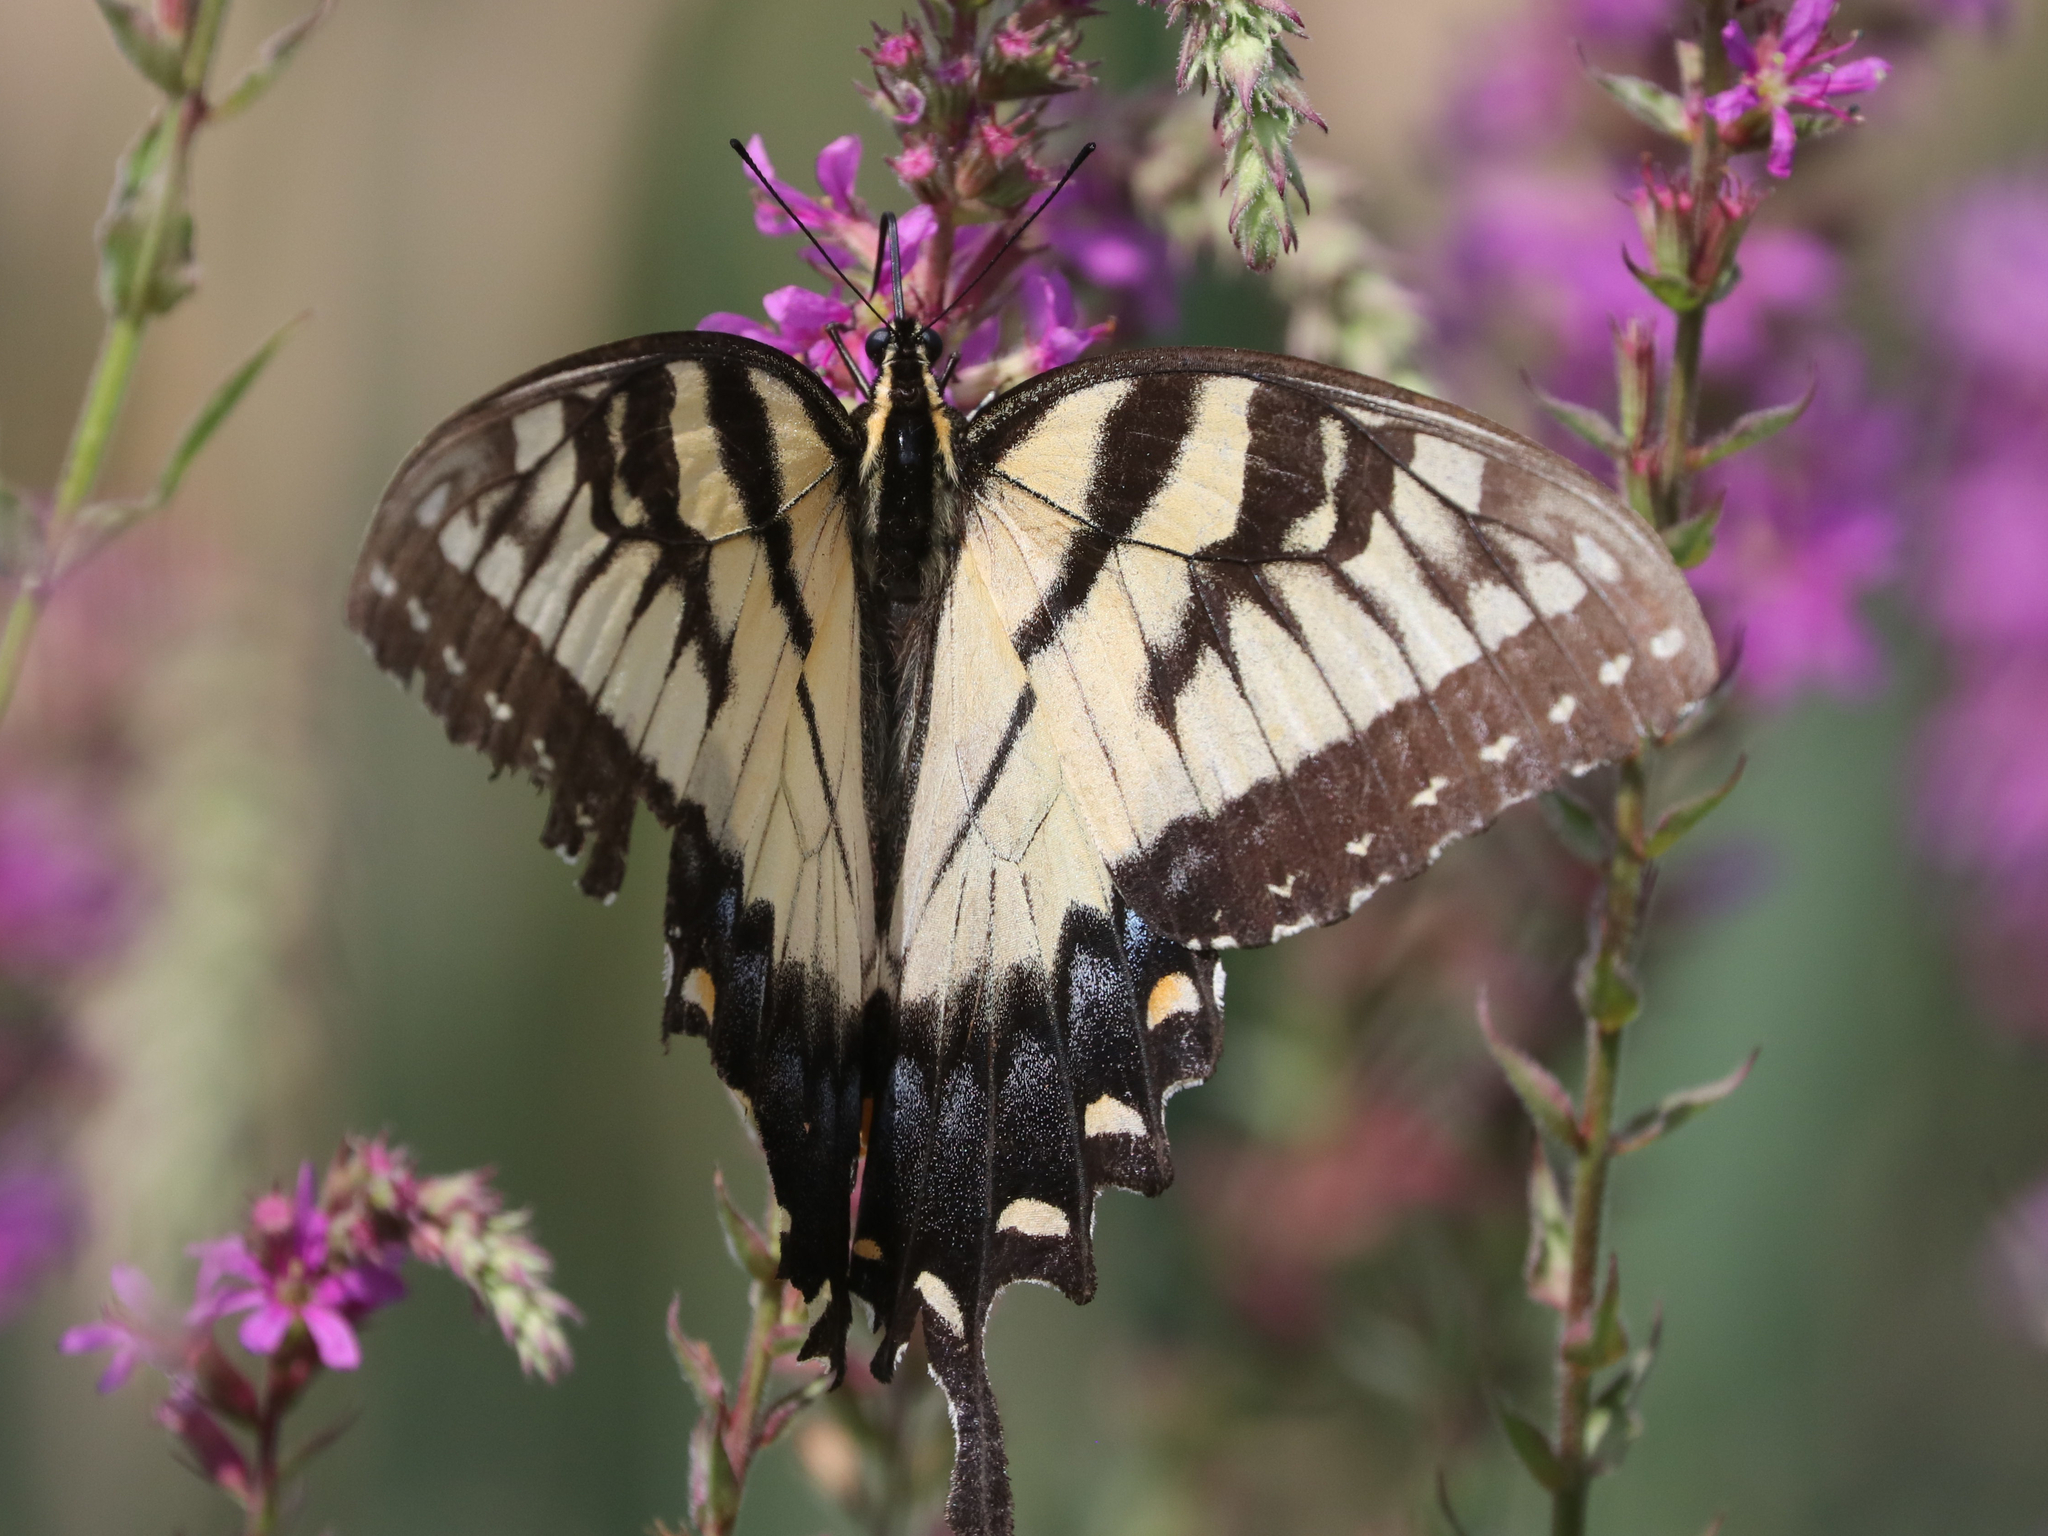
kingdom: Animalia
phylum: Arthropoda
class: Insecta
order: Lepidoptera
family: Papilionidae
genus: Papilio
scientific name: Papilio glaucus
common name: Tiger swallowtail
